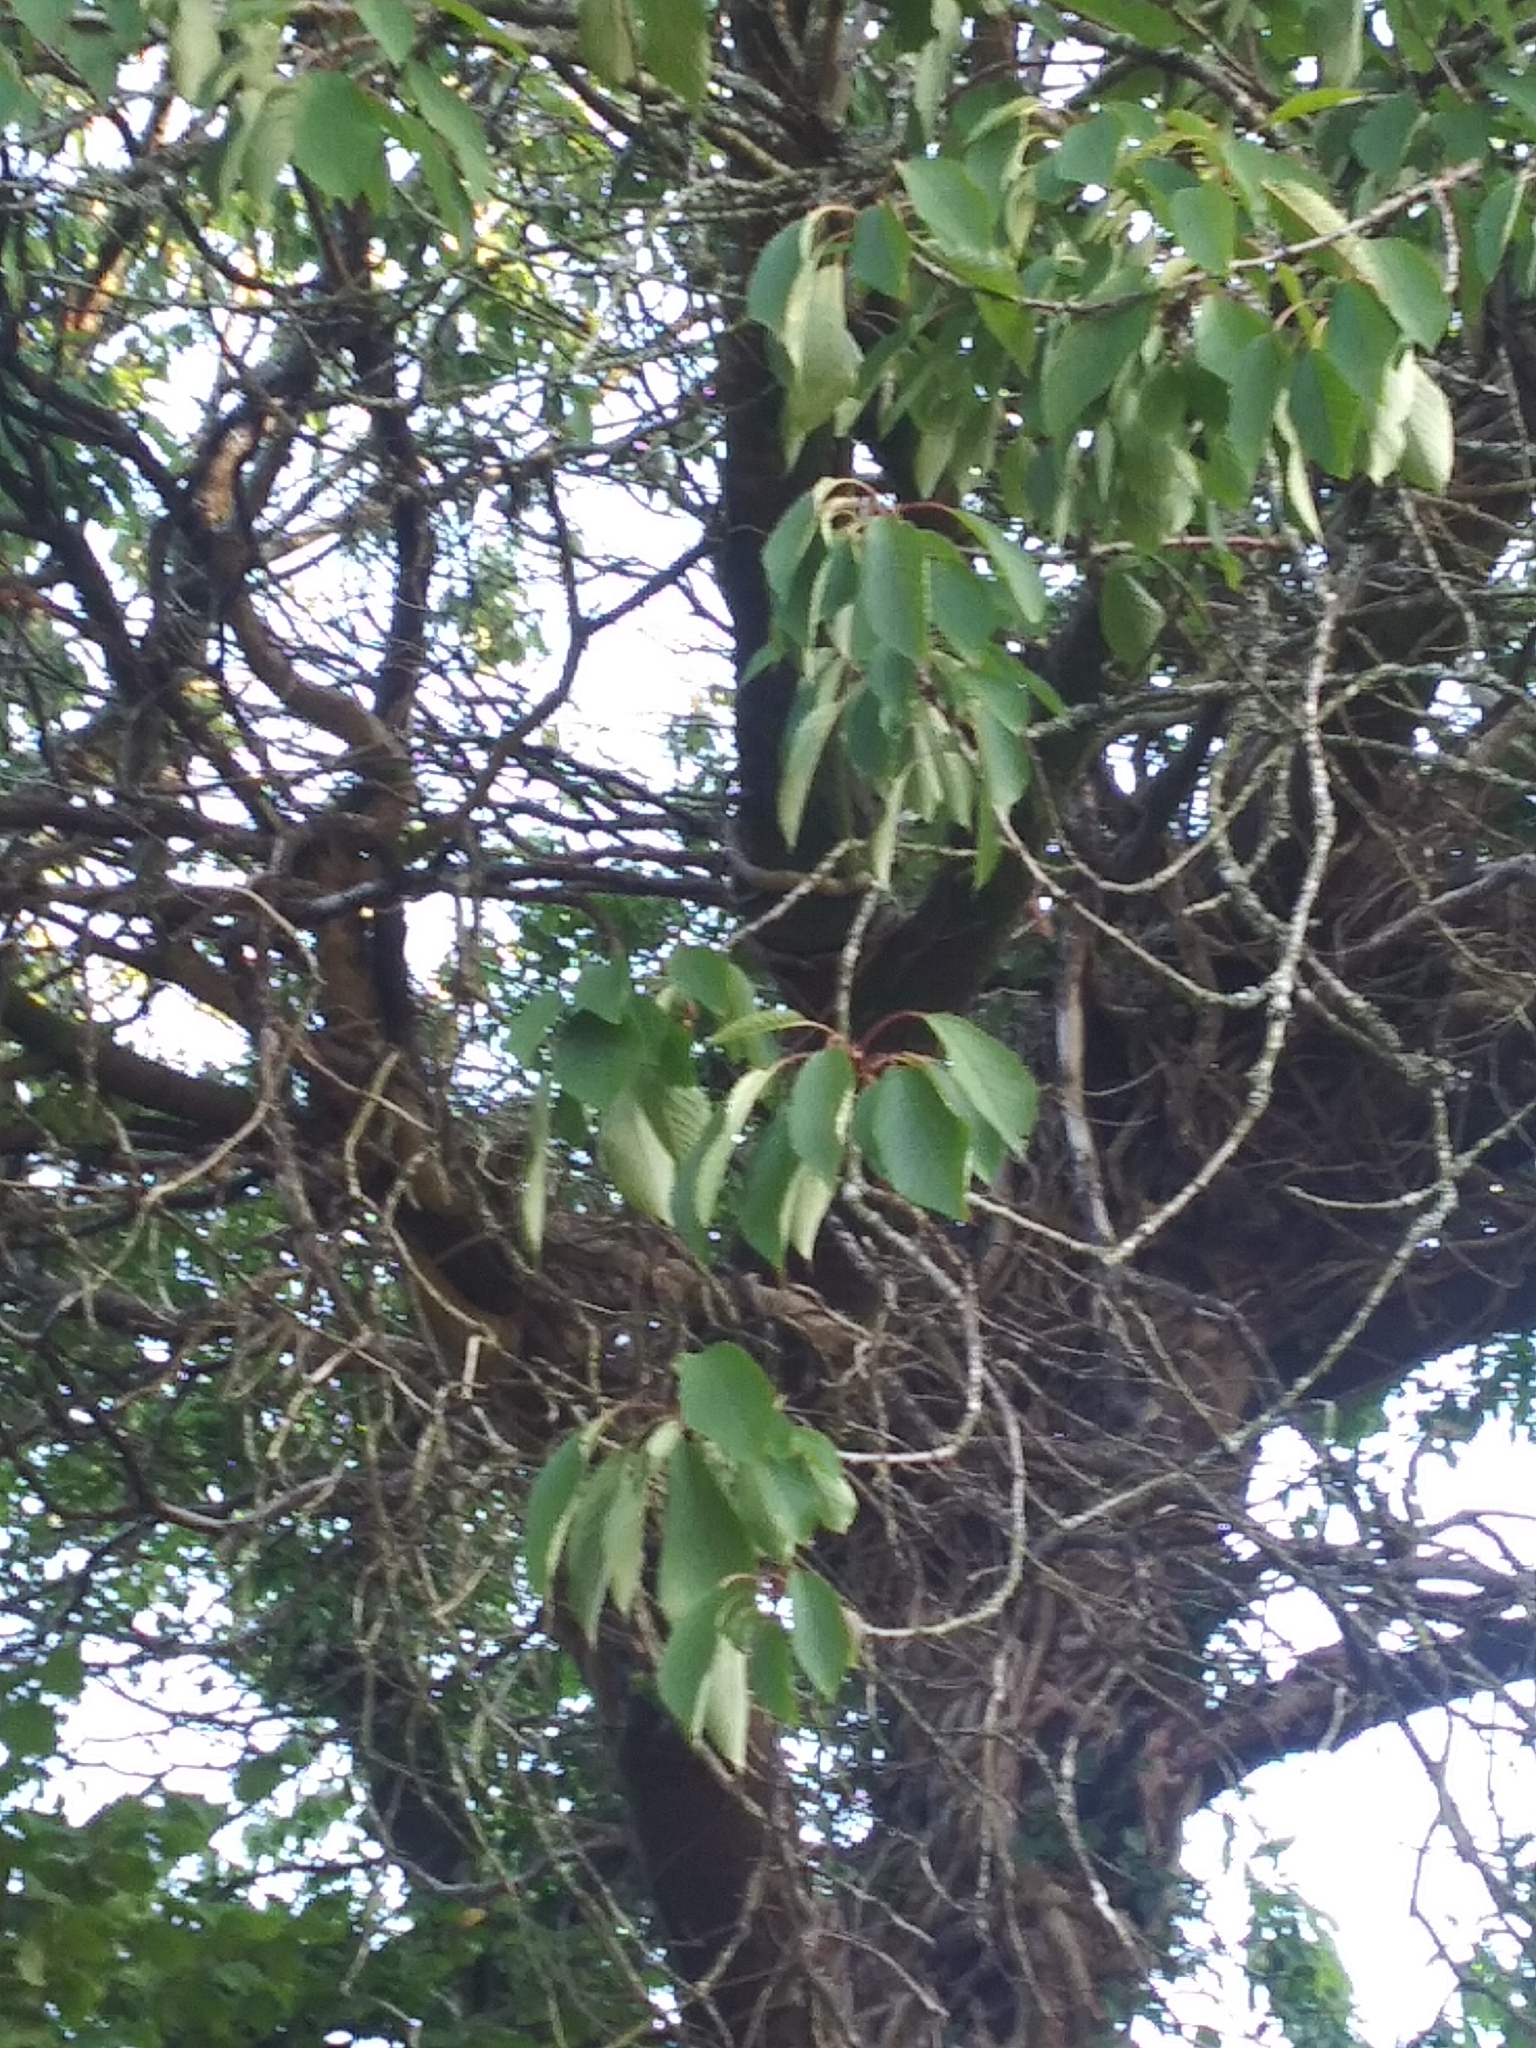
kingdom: Plantae
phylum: Tracheophyta
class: Magnoliopsida
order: Rosales
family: Rosaceae
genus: Prunus
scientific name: Prunus avium
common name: Sweet cherry
